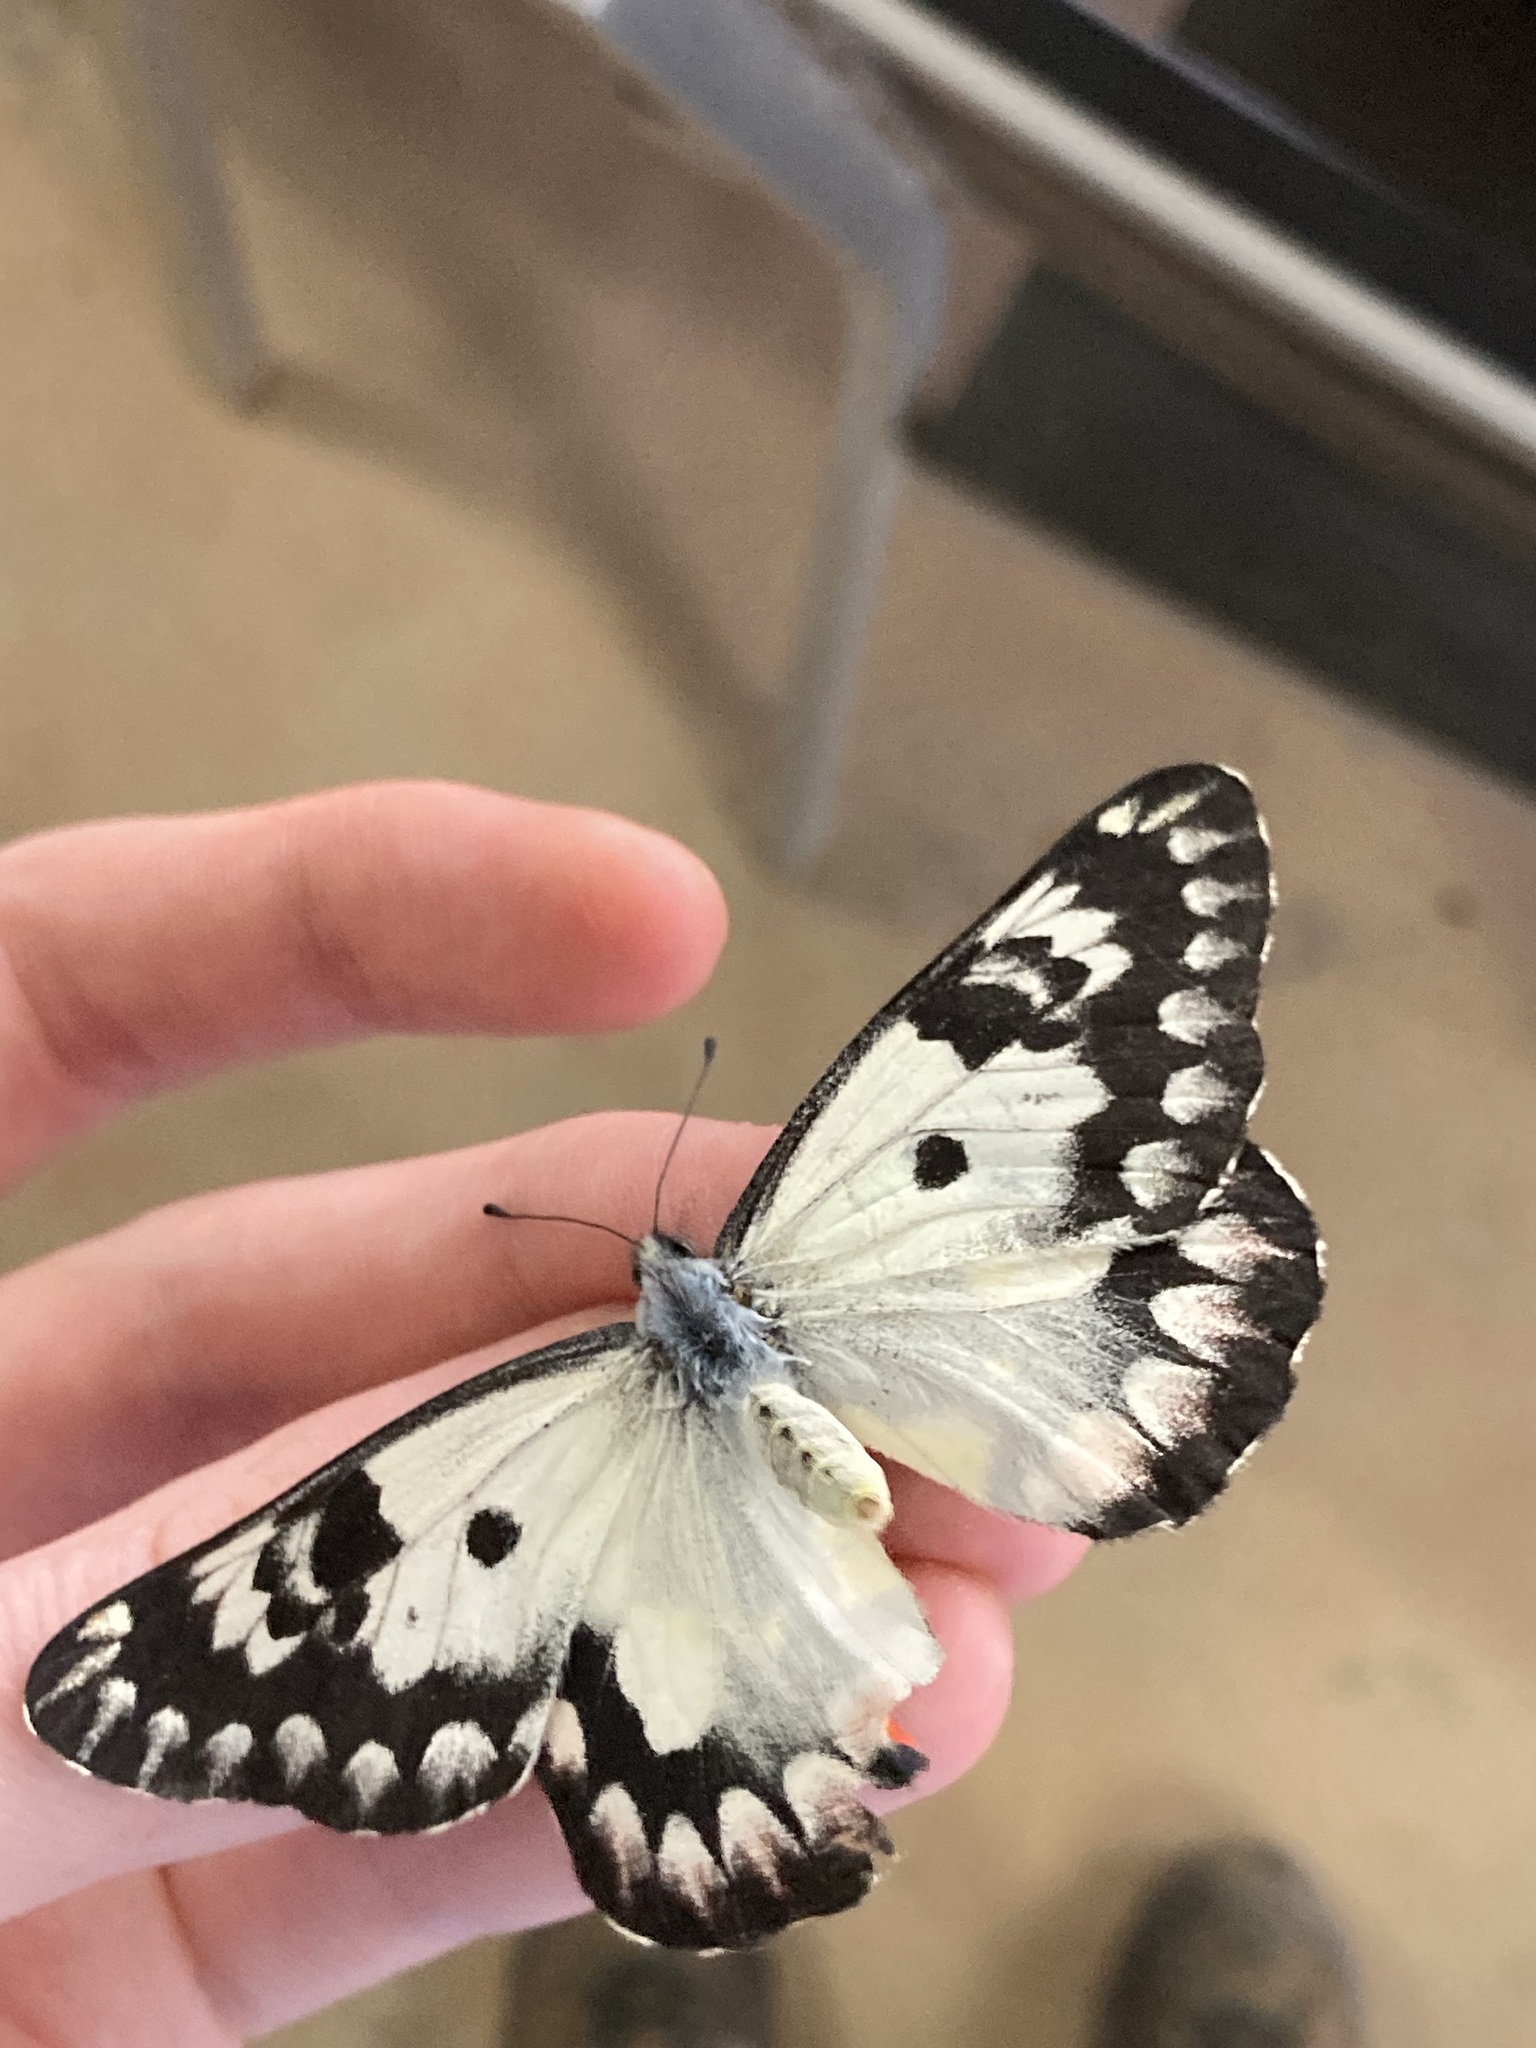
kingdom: Animalia
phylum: Arthropoda
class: Insecta
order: Lepidoptera
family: Pieridae
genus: Delias
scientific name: Delias aganippe
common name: Red-spotted jezebel
